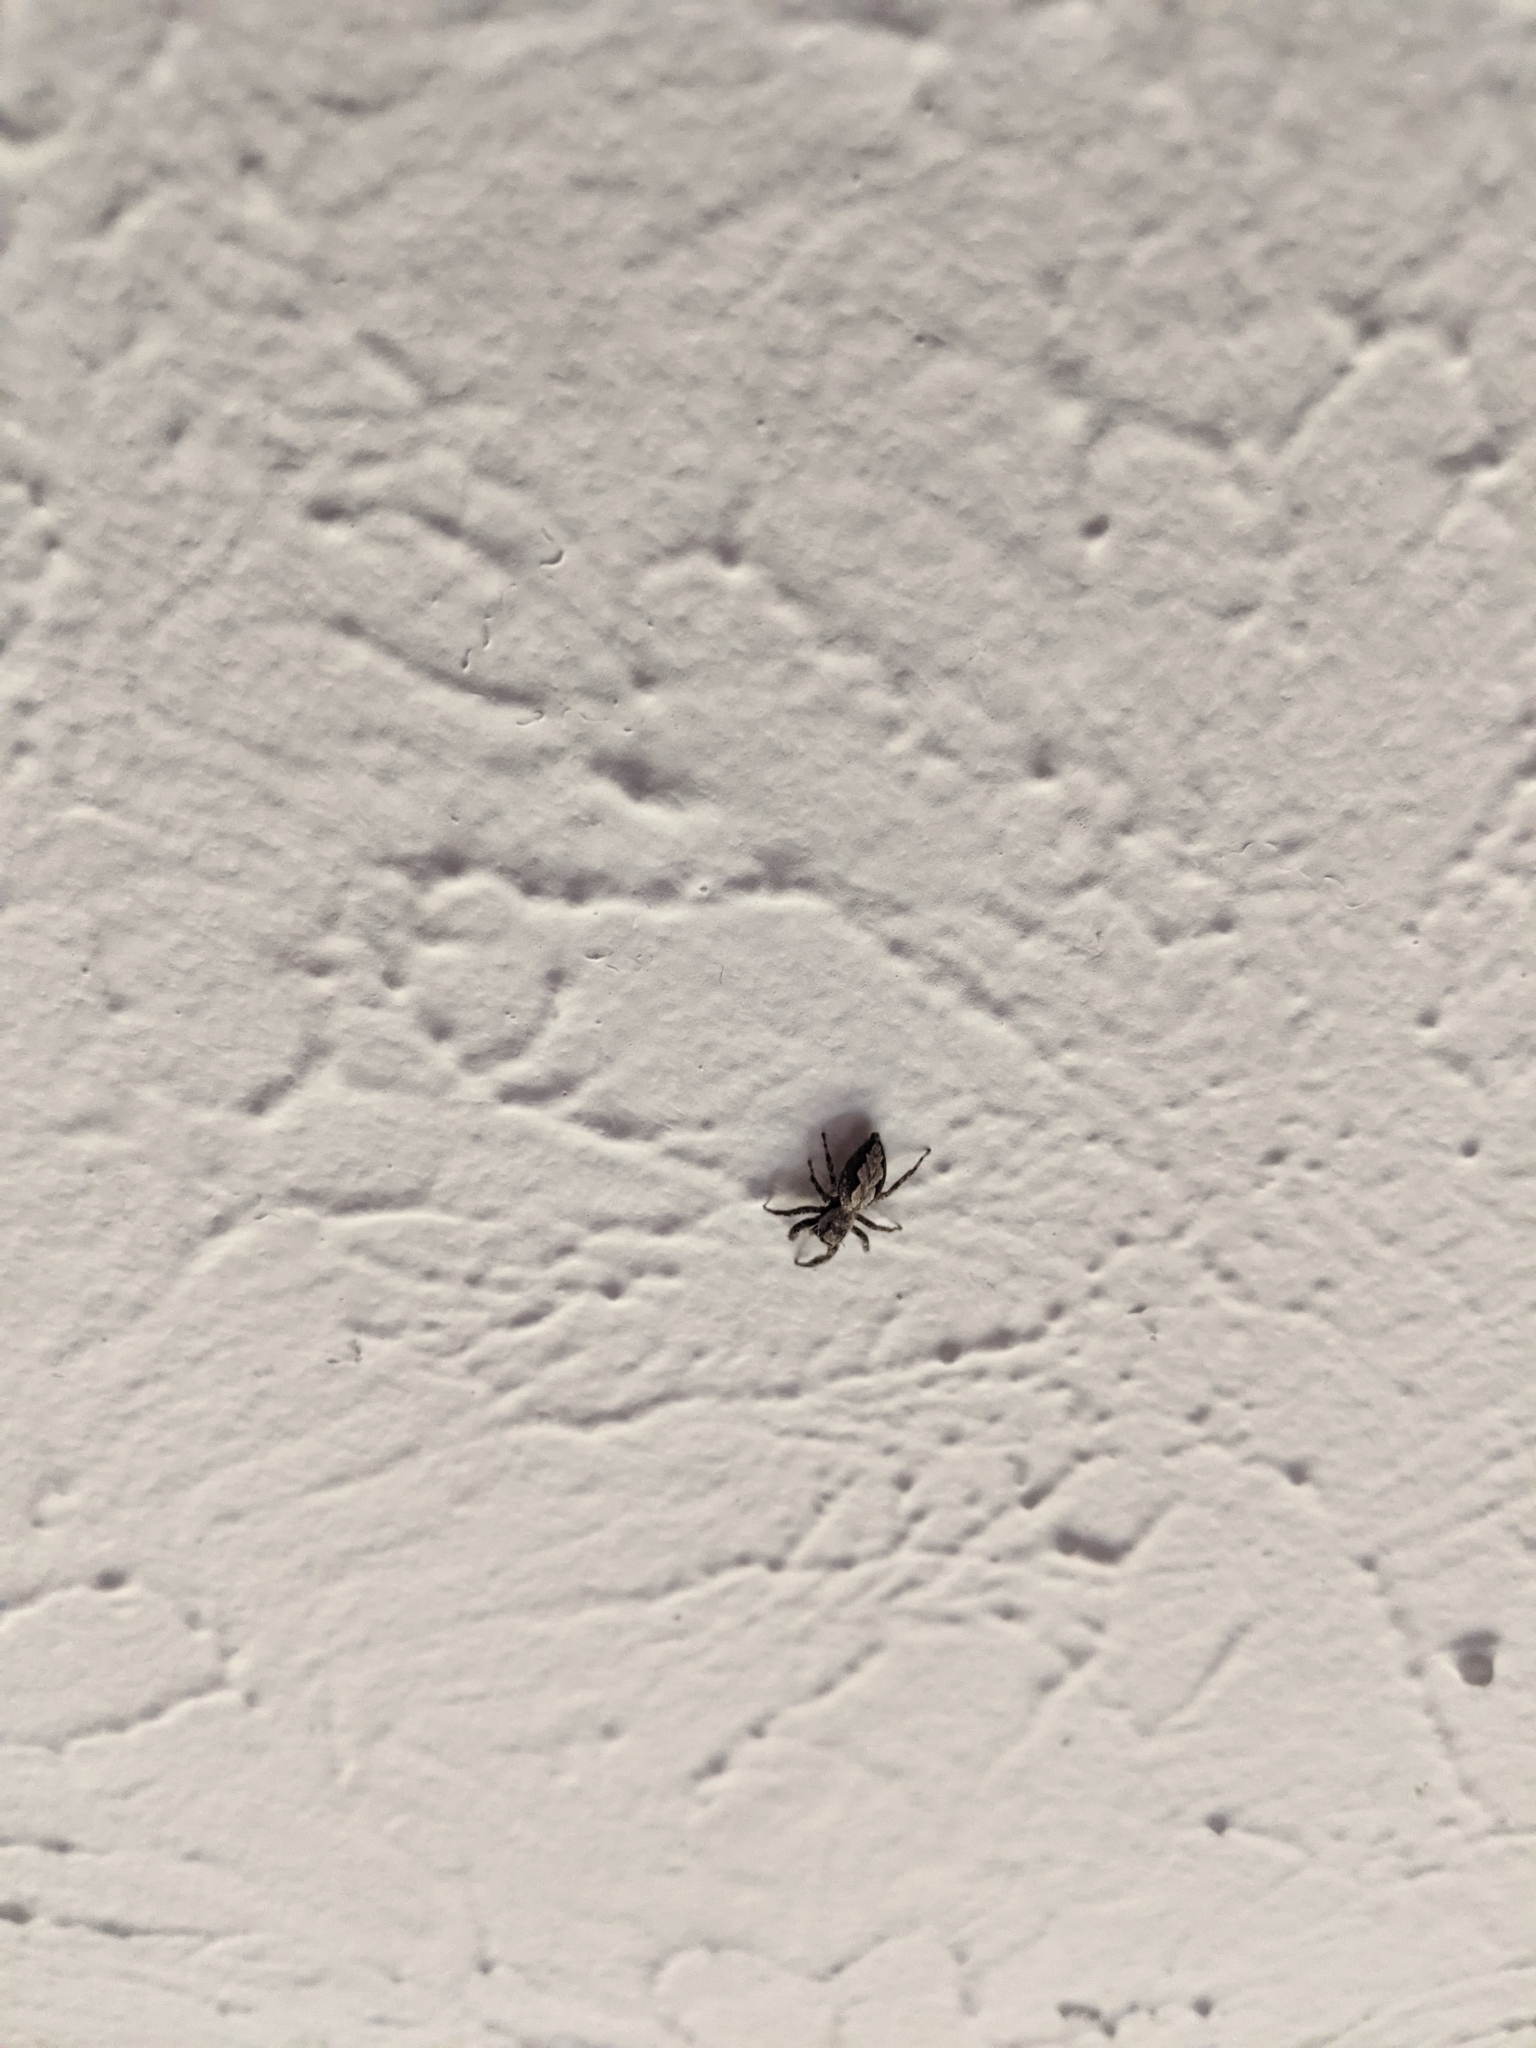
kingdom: Animalia
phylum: Arthropoda
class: Arachnida
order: Araneae
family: Salticidae
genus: Platycryptus
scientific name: Platycryptus undatus
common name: Tan jumping spider
